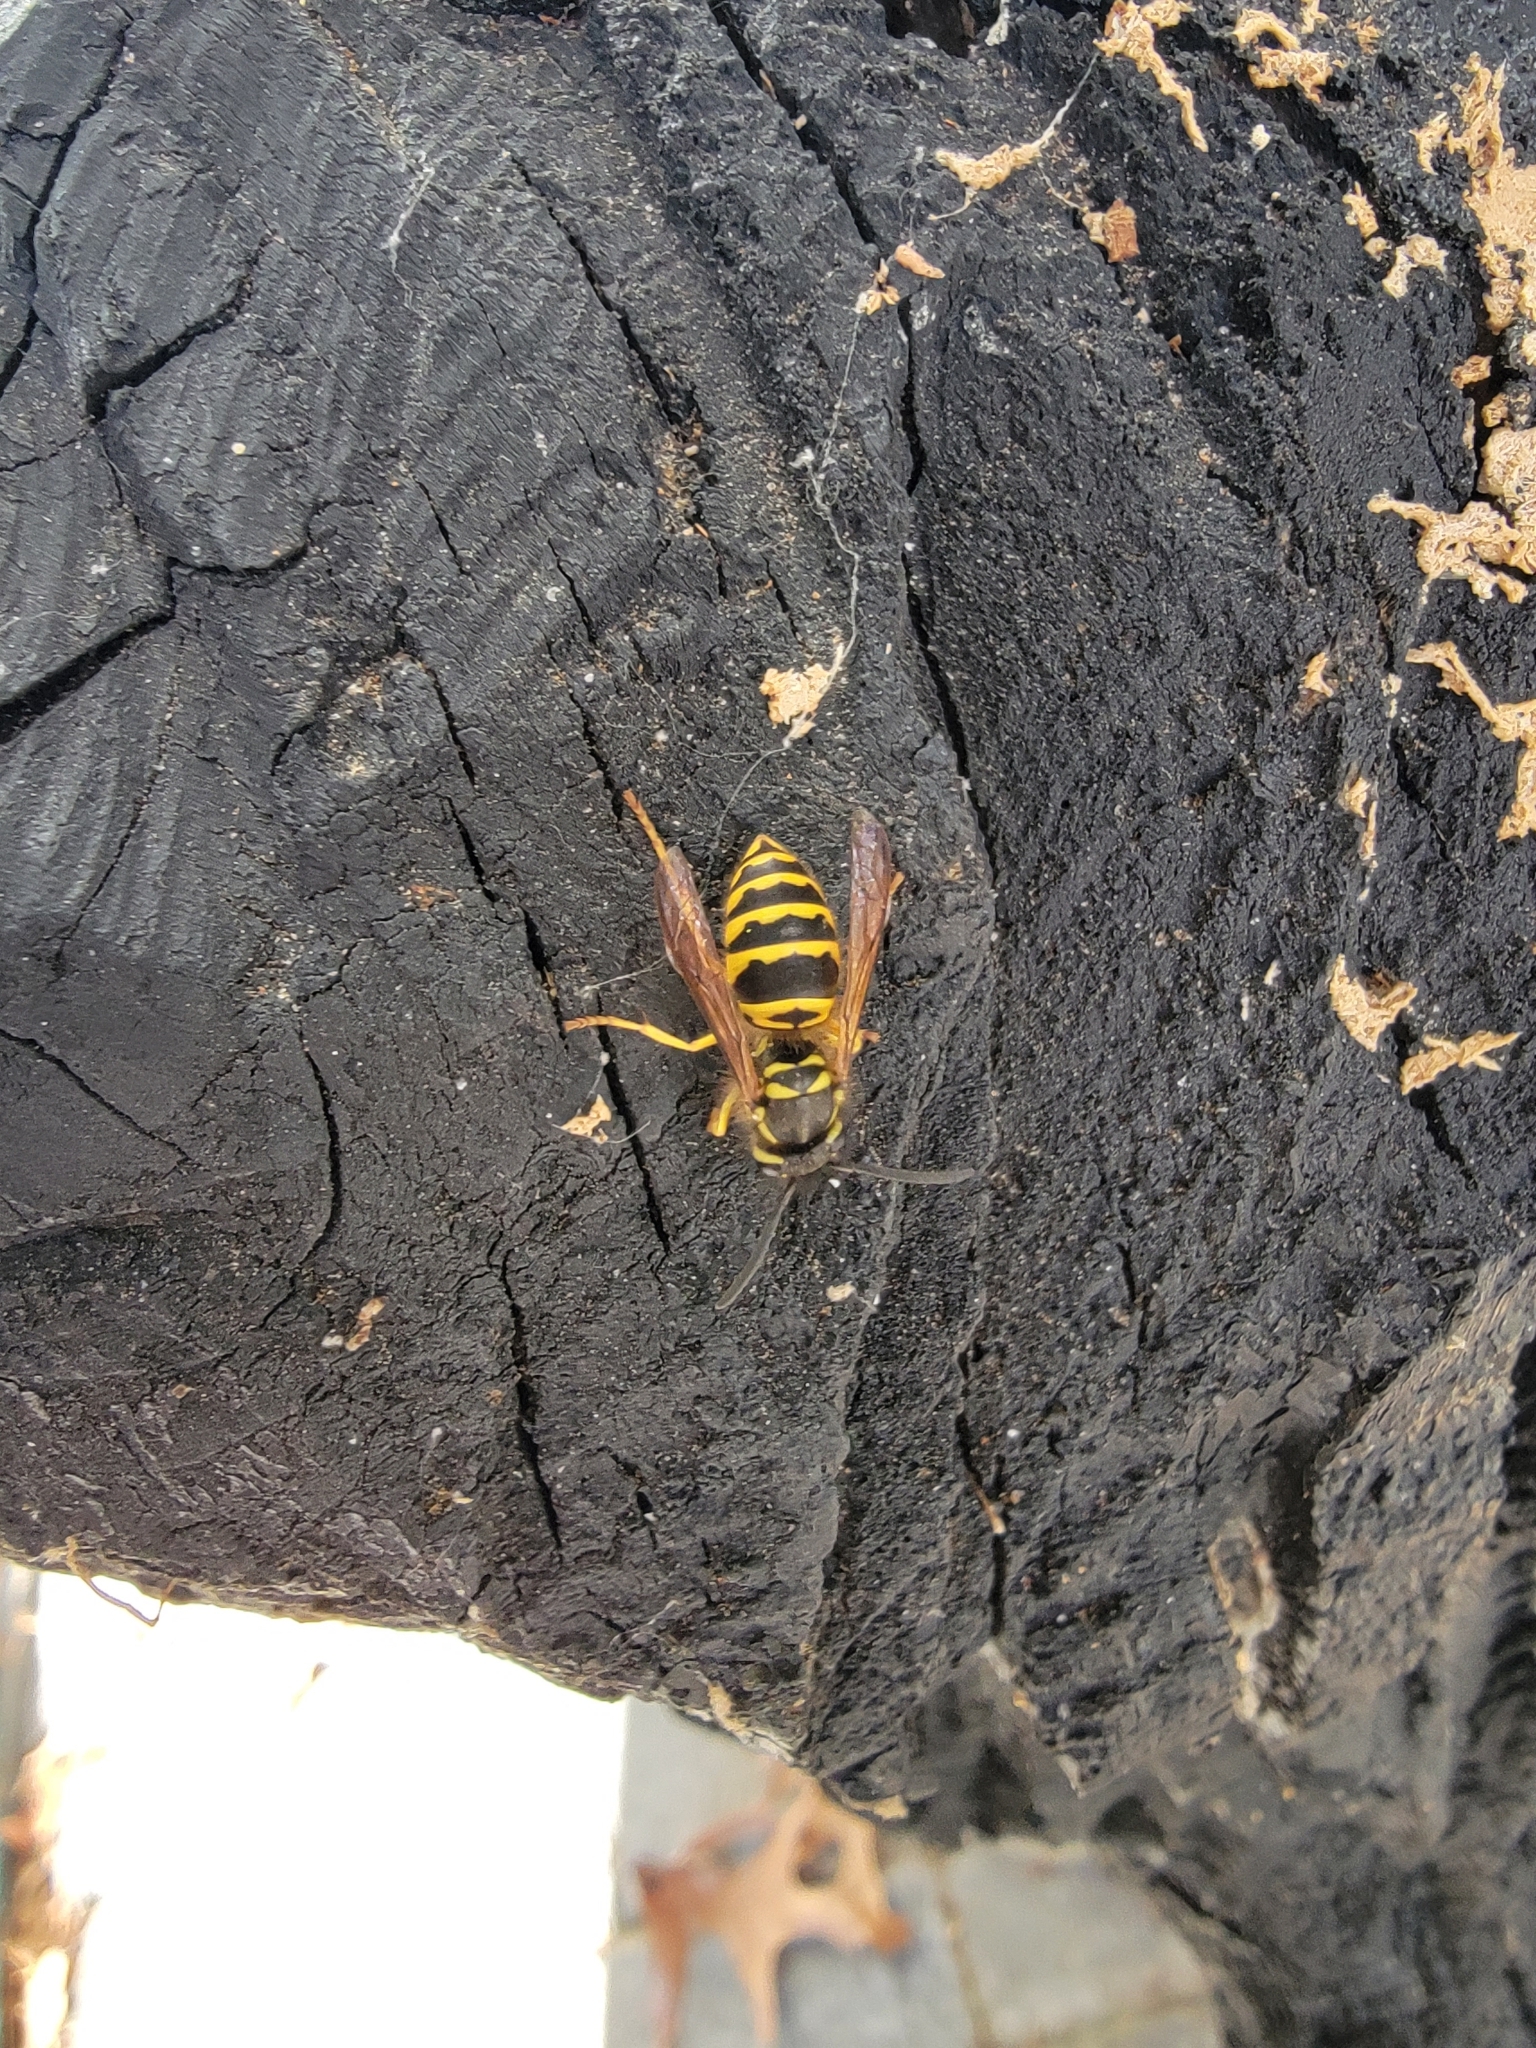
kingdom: Animalia
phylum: Arthropoda
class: Insecta
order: Hymenoptera
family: Vespidae
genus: Vespula
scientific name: Vespula maculifrons
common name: Eastern yellowjacket
